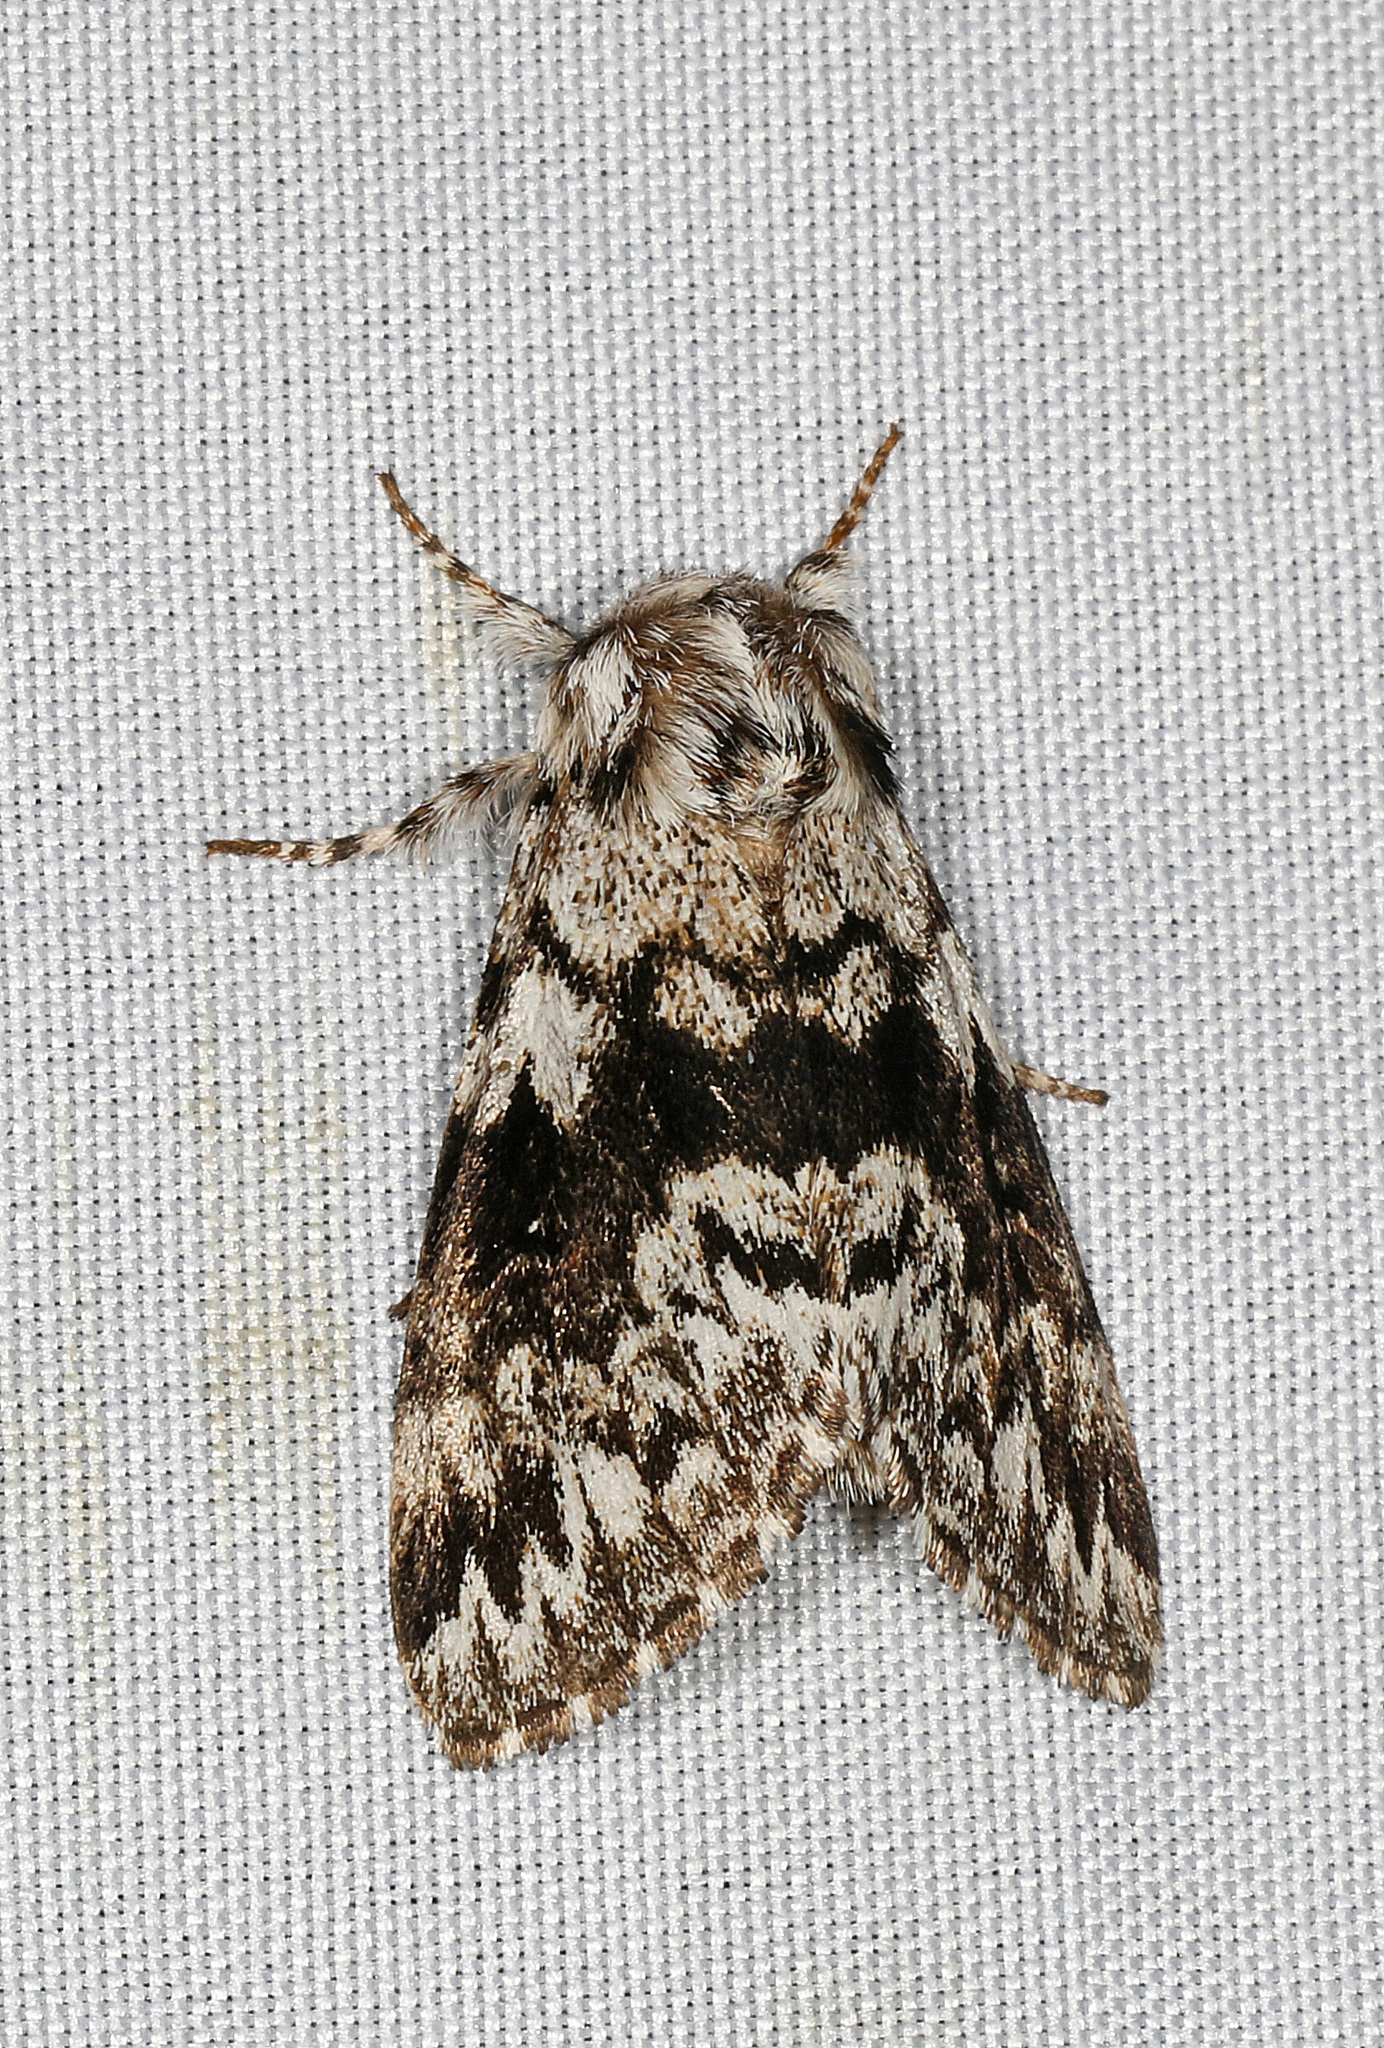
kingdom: Animalia
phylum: Arthropoda
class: Insecta
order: Lepidoptera
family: Noctuidae
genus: Panthea
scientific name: Panthea acronyctoides
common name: Black zigzag moth
